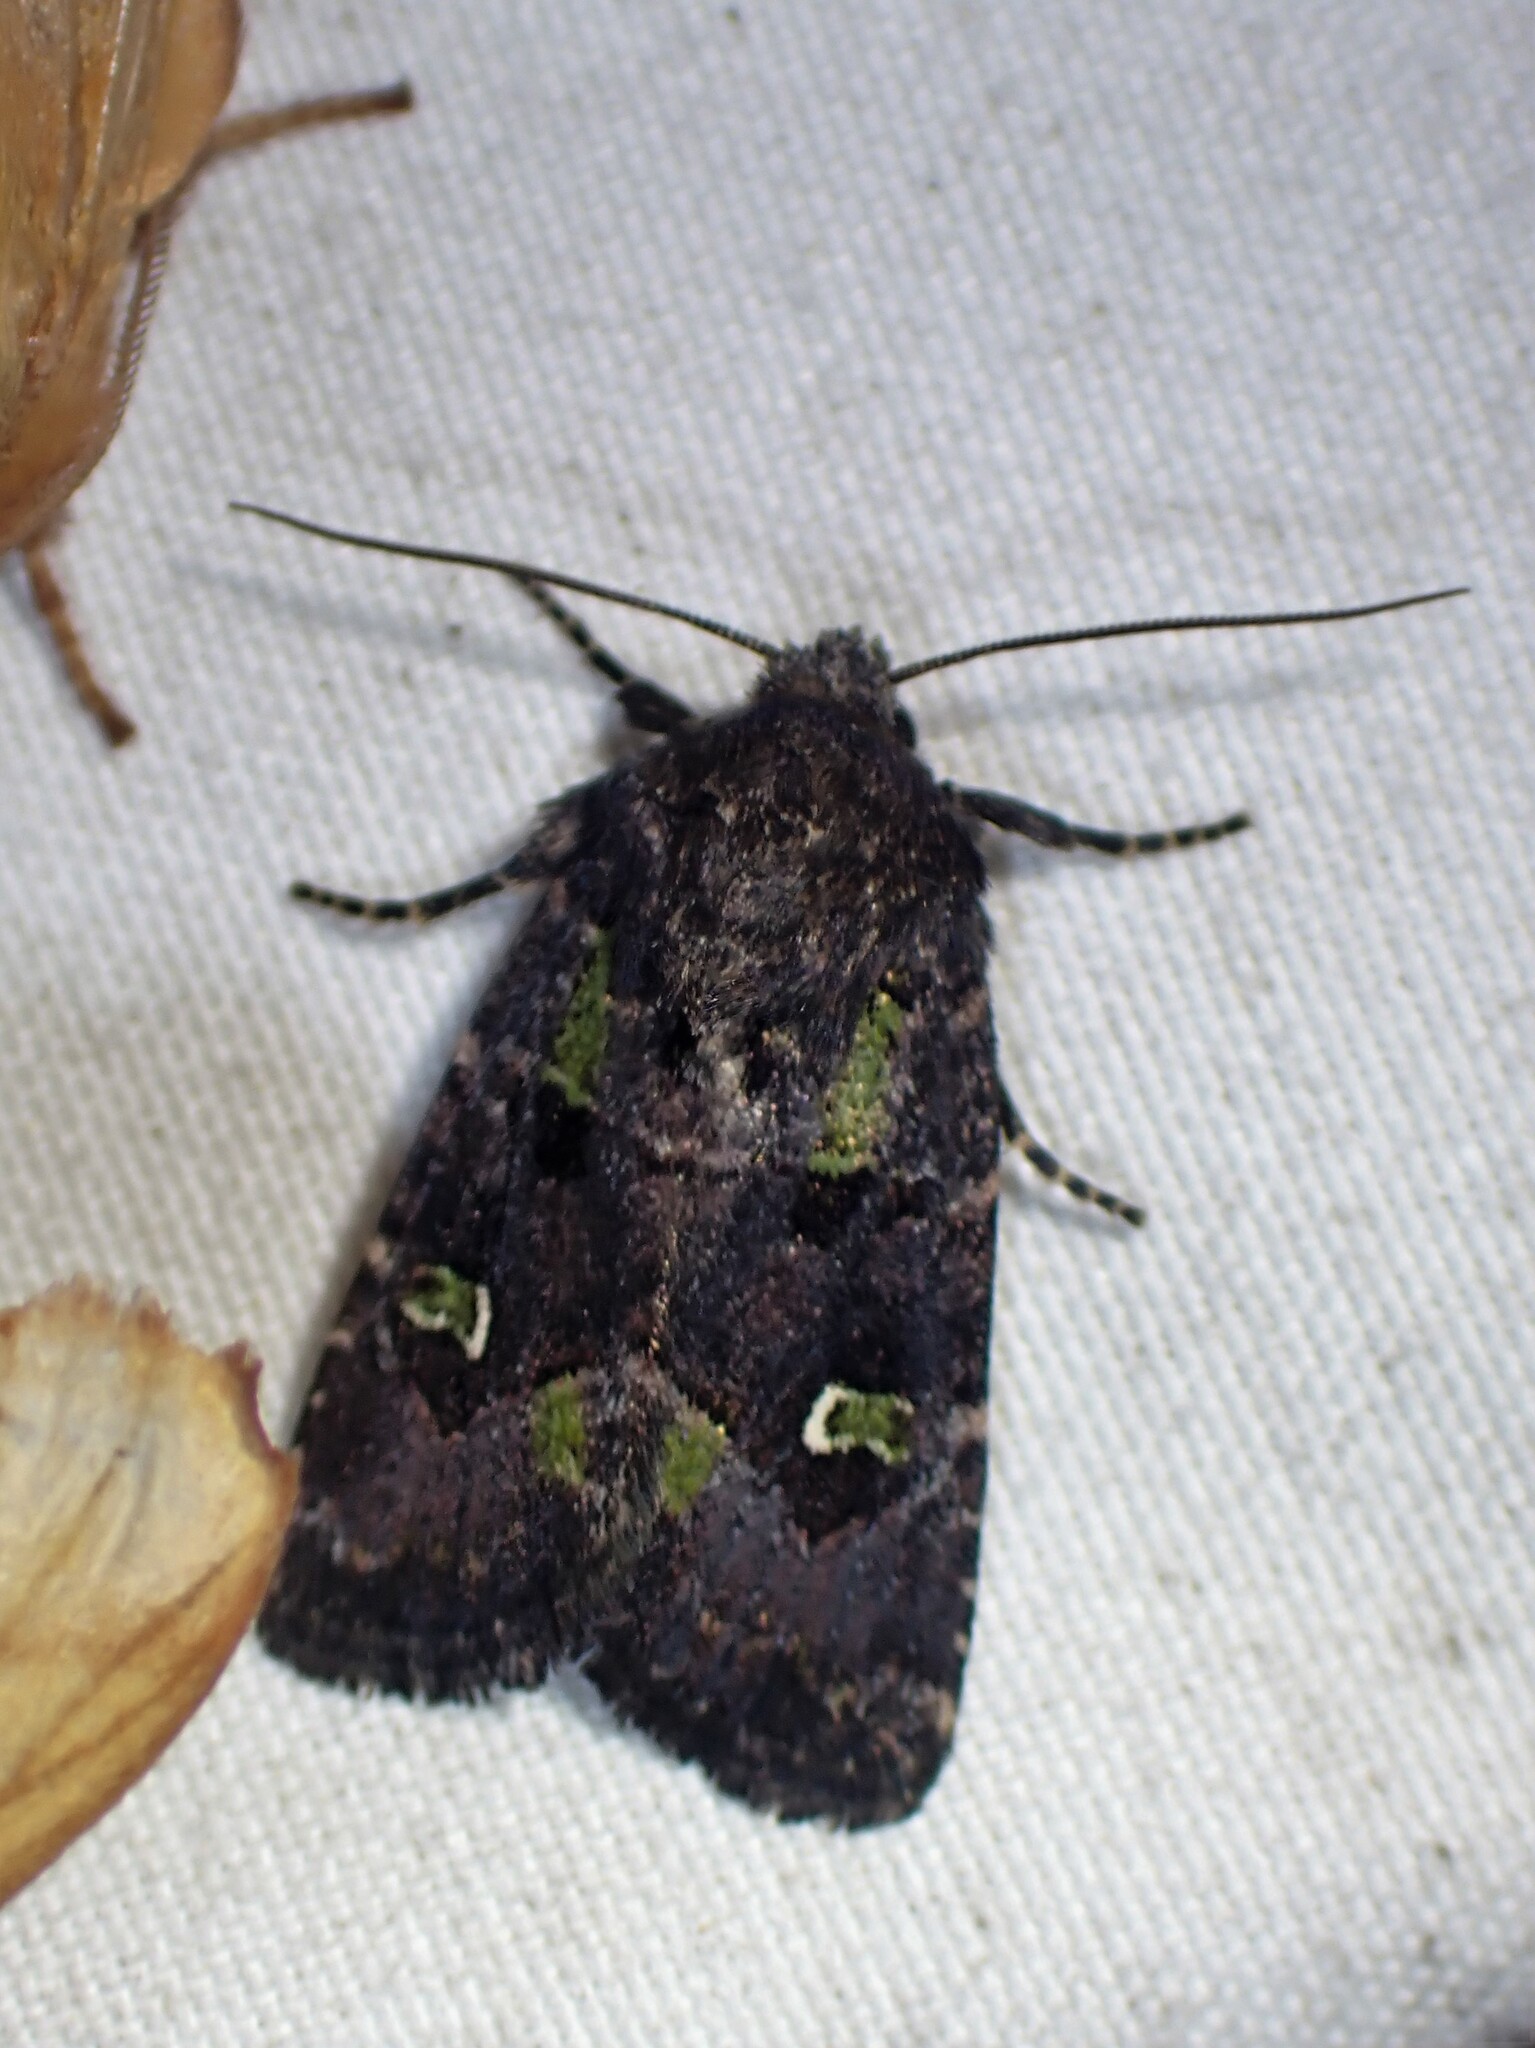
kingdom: Animalia
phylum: Arthropoda
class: Insecta
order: Lepidoptera
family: Noctuidae
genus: Lacinipolia
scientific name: Lacinipolia renigera
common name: Kidney-spotted minor
